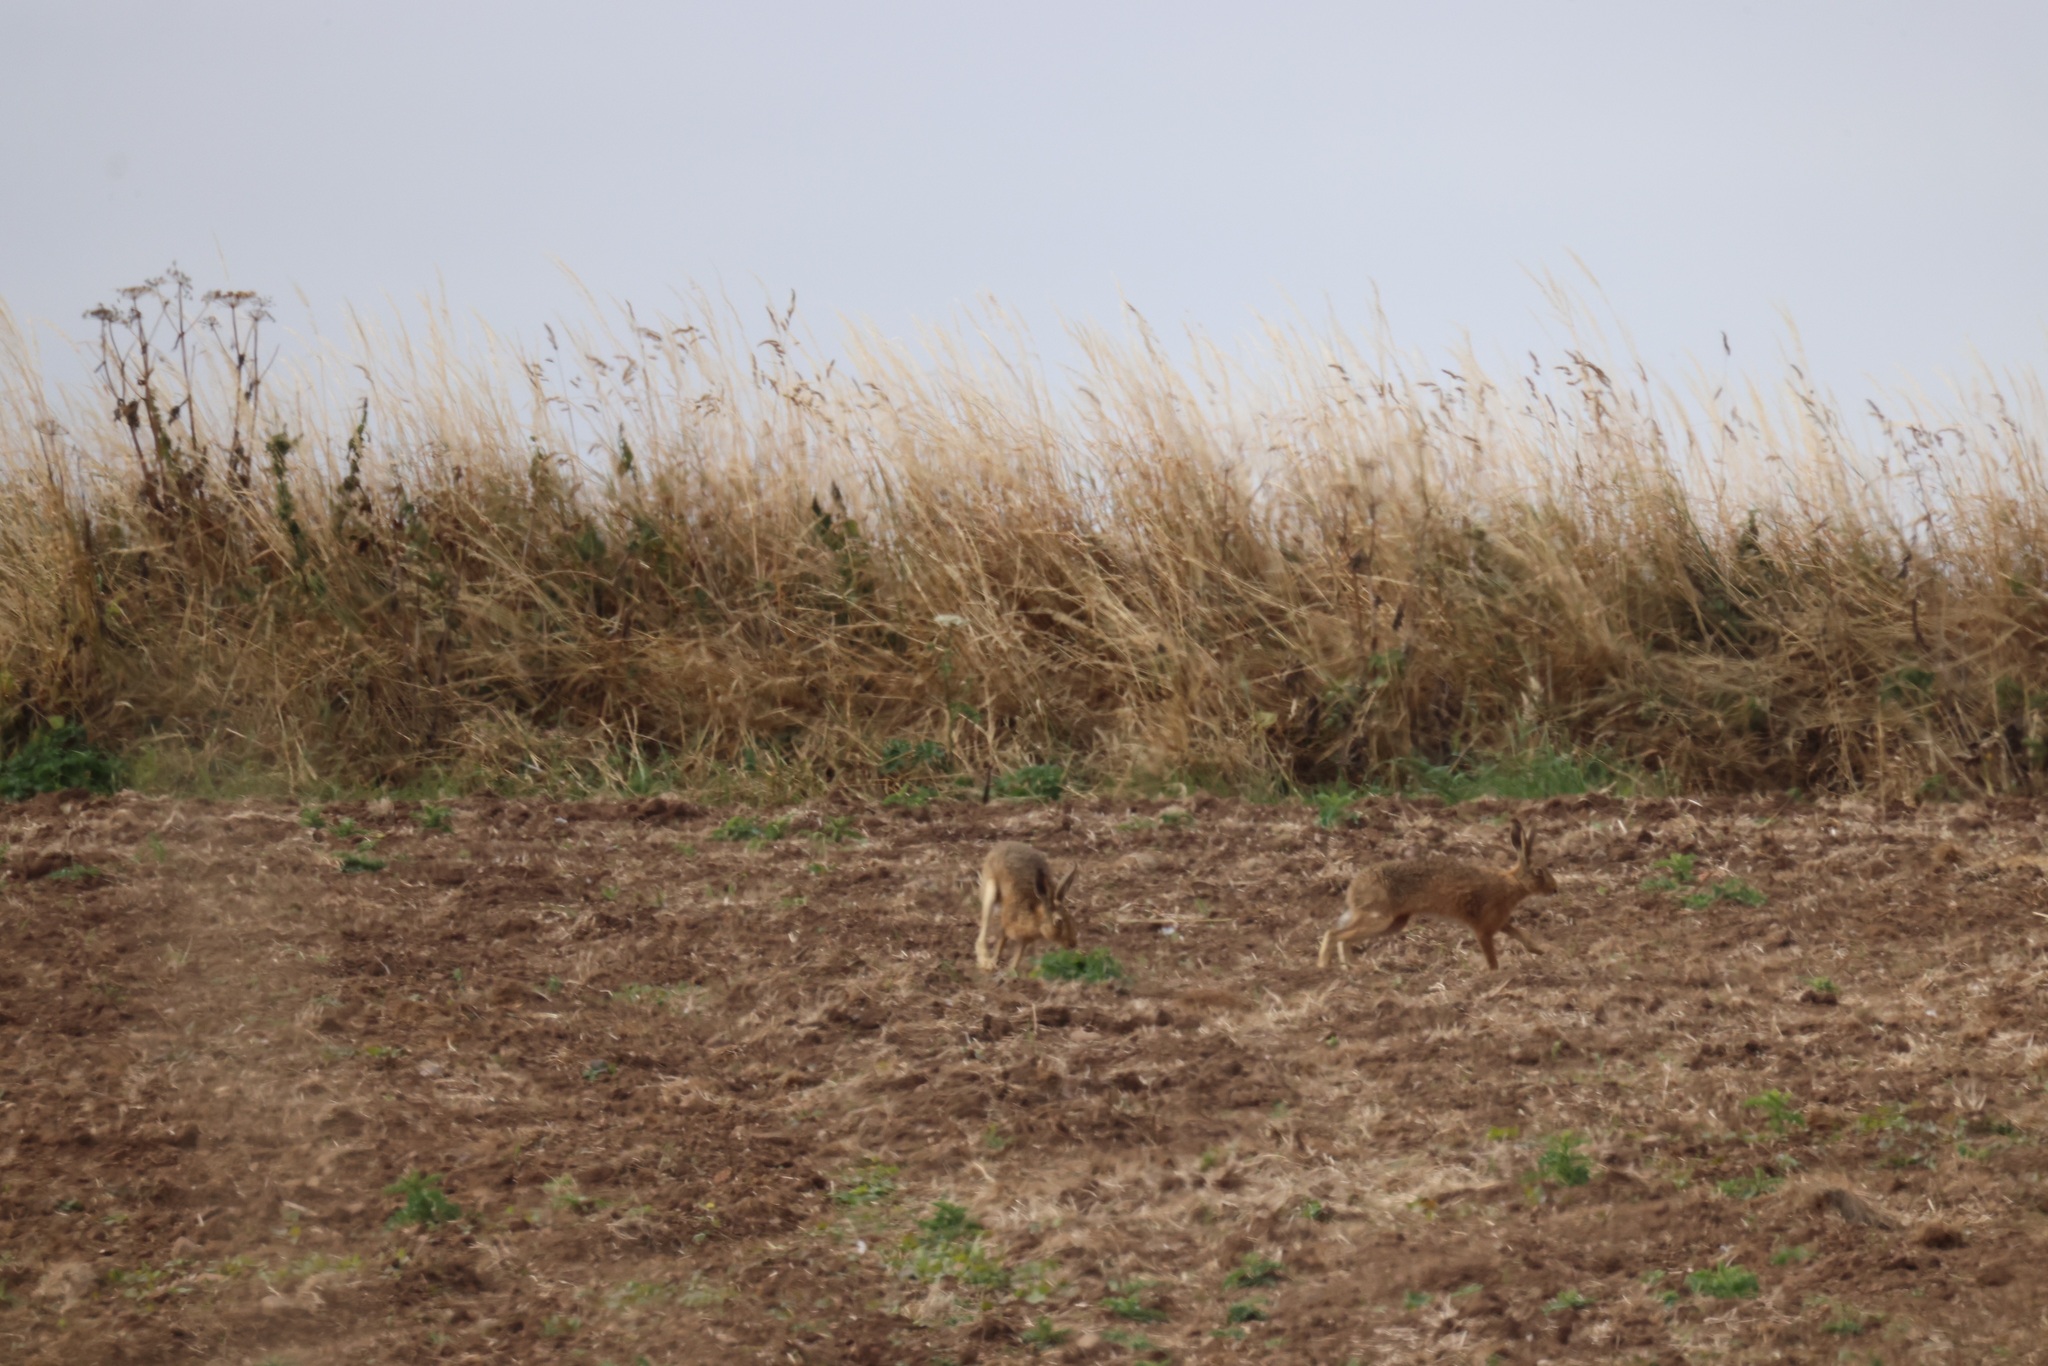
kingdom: Animalia
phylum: Chordata
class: Mammalia
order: Lagomorpha
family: Leporidae
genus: Lepus
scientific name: Lepus europaeus
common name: European hare
